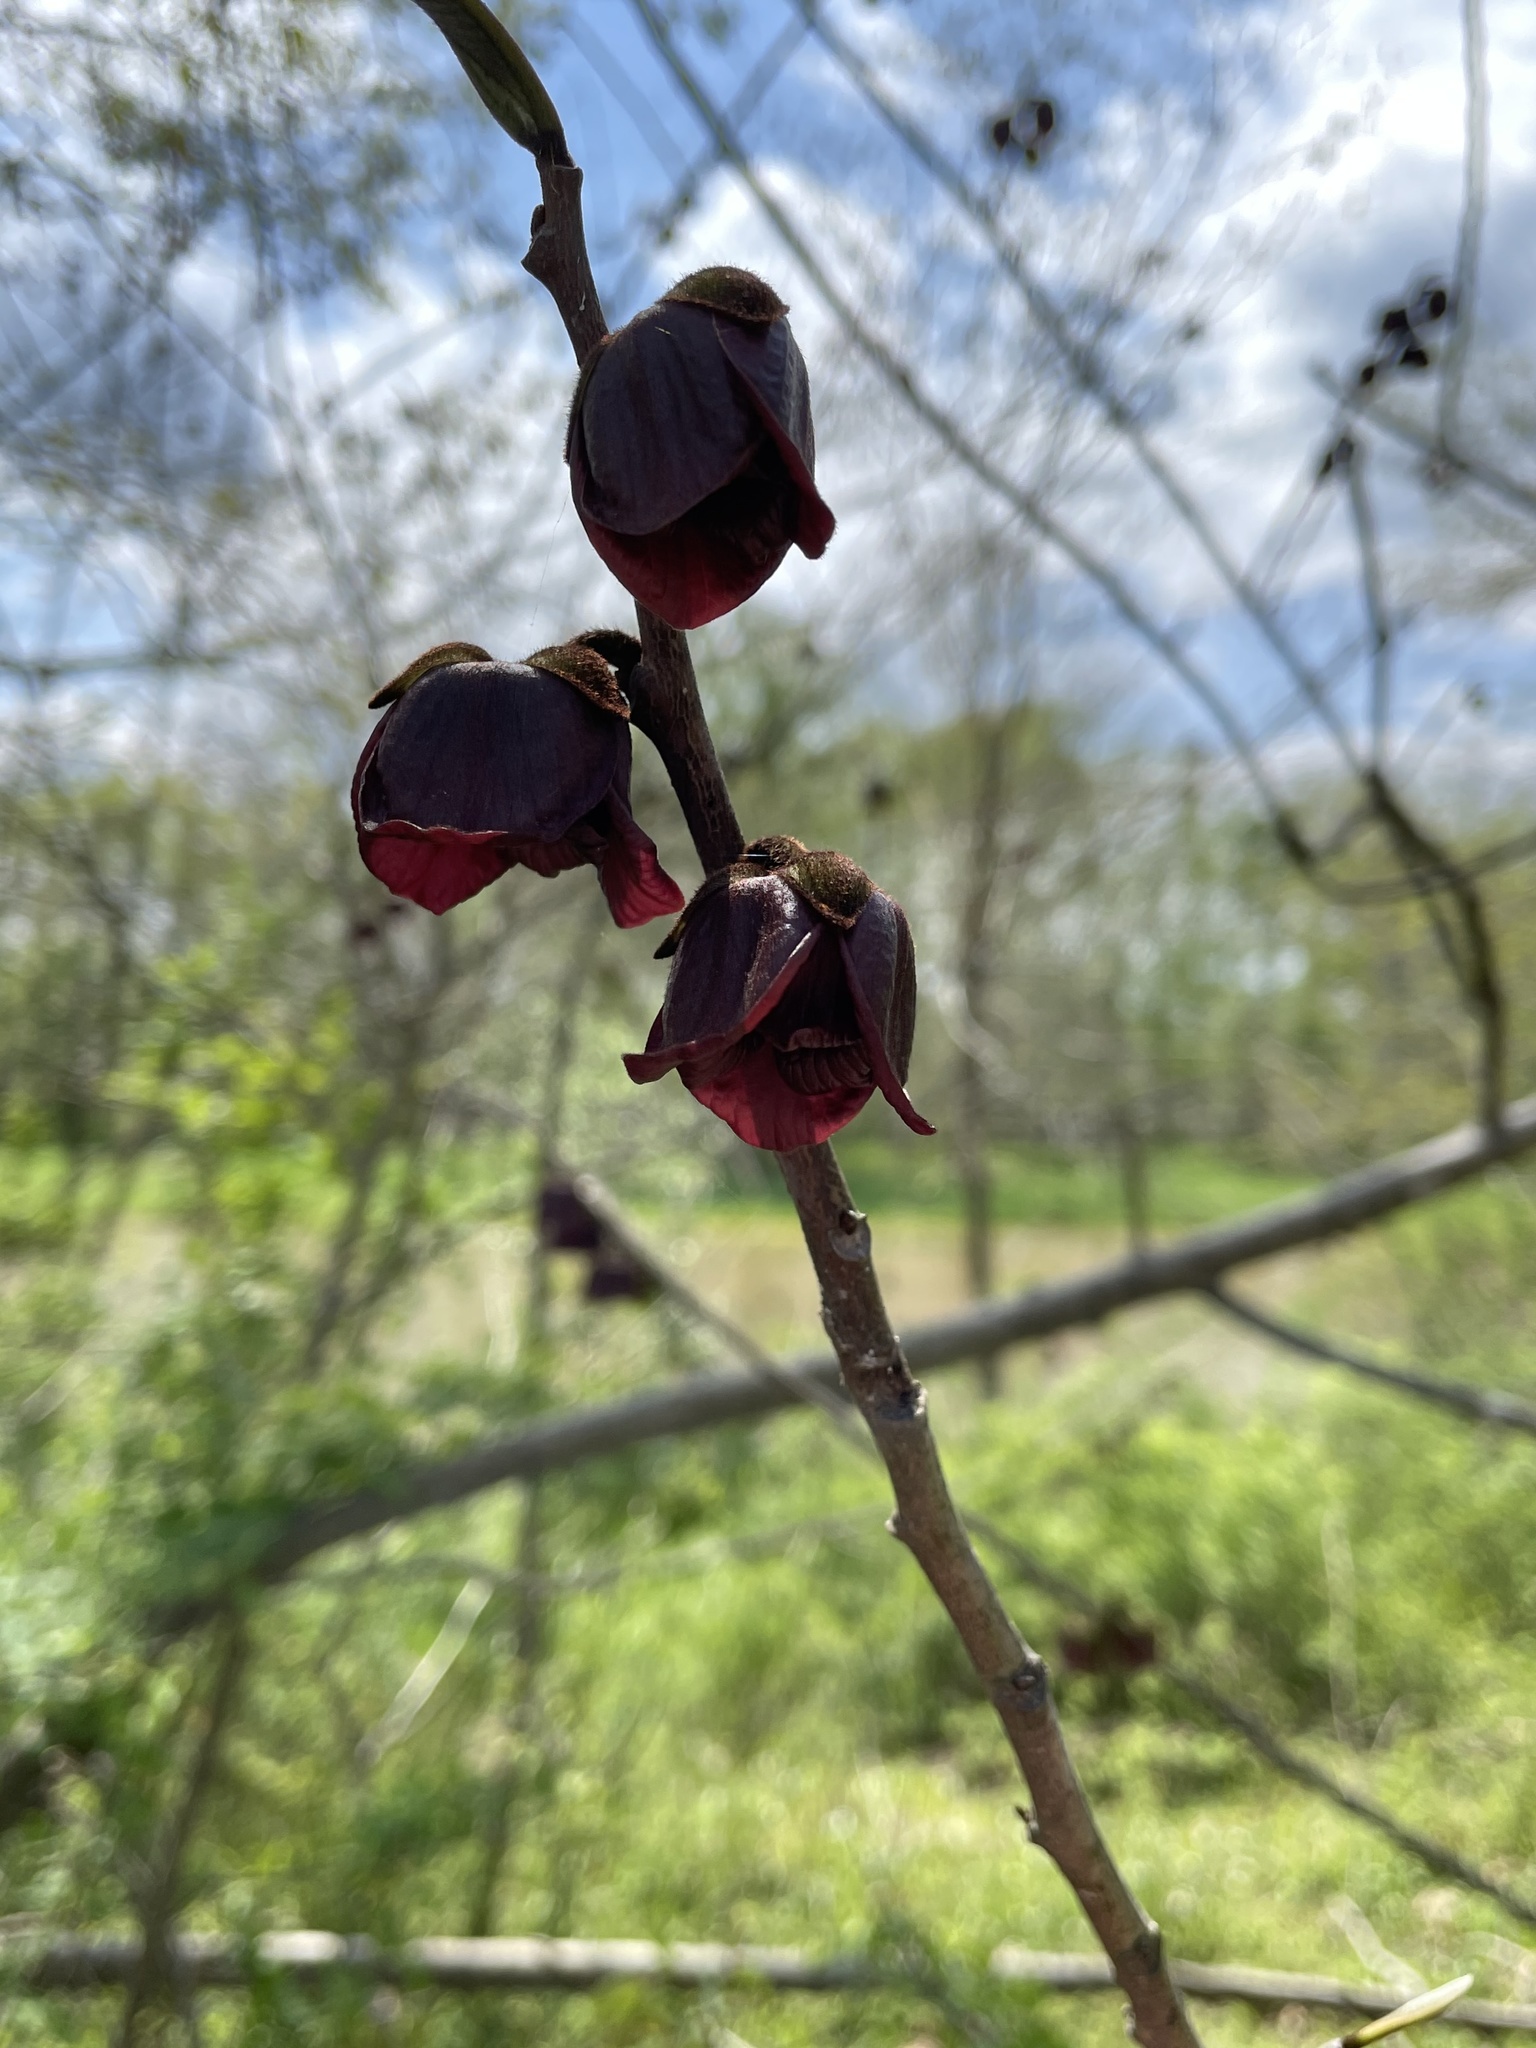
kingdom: Plantae
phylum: Tracheophyta
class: Magnoliopsida
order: Magnoliales
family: Annonaceae
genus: Asimina
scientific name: Asimina triloba
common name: Dog-banana
